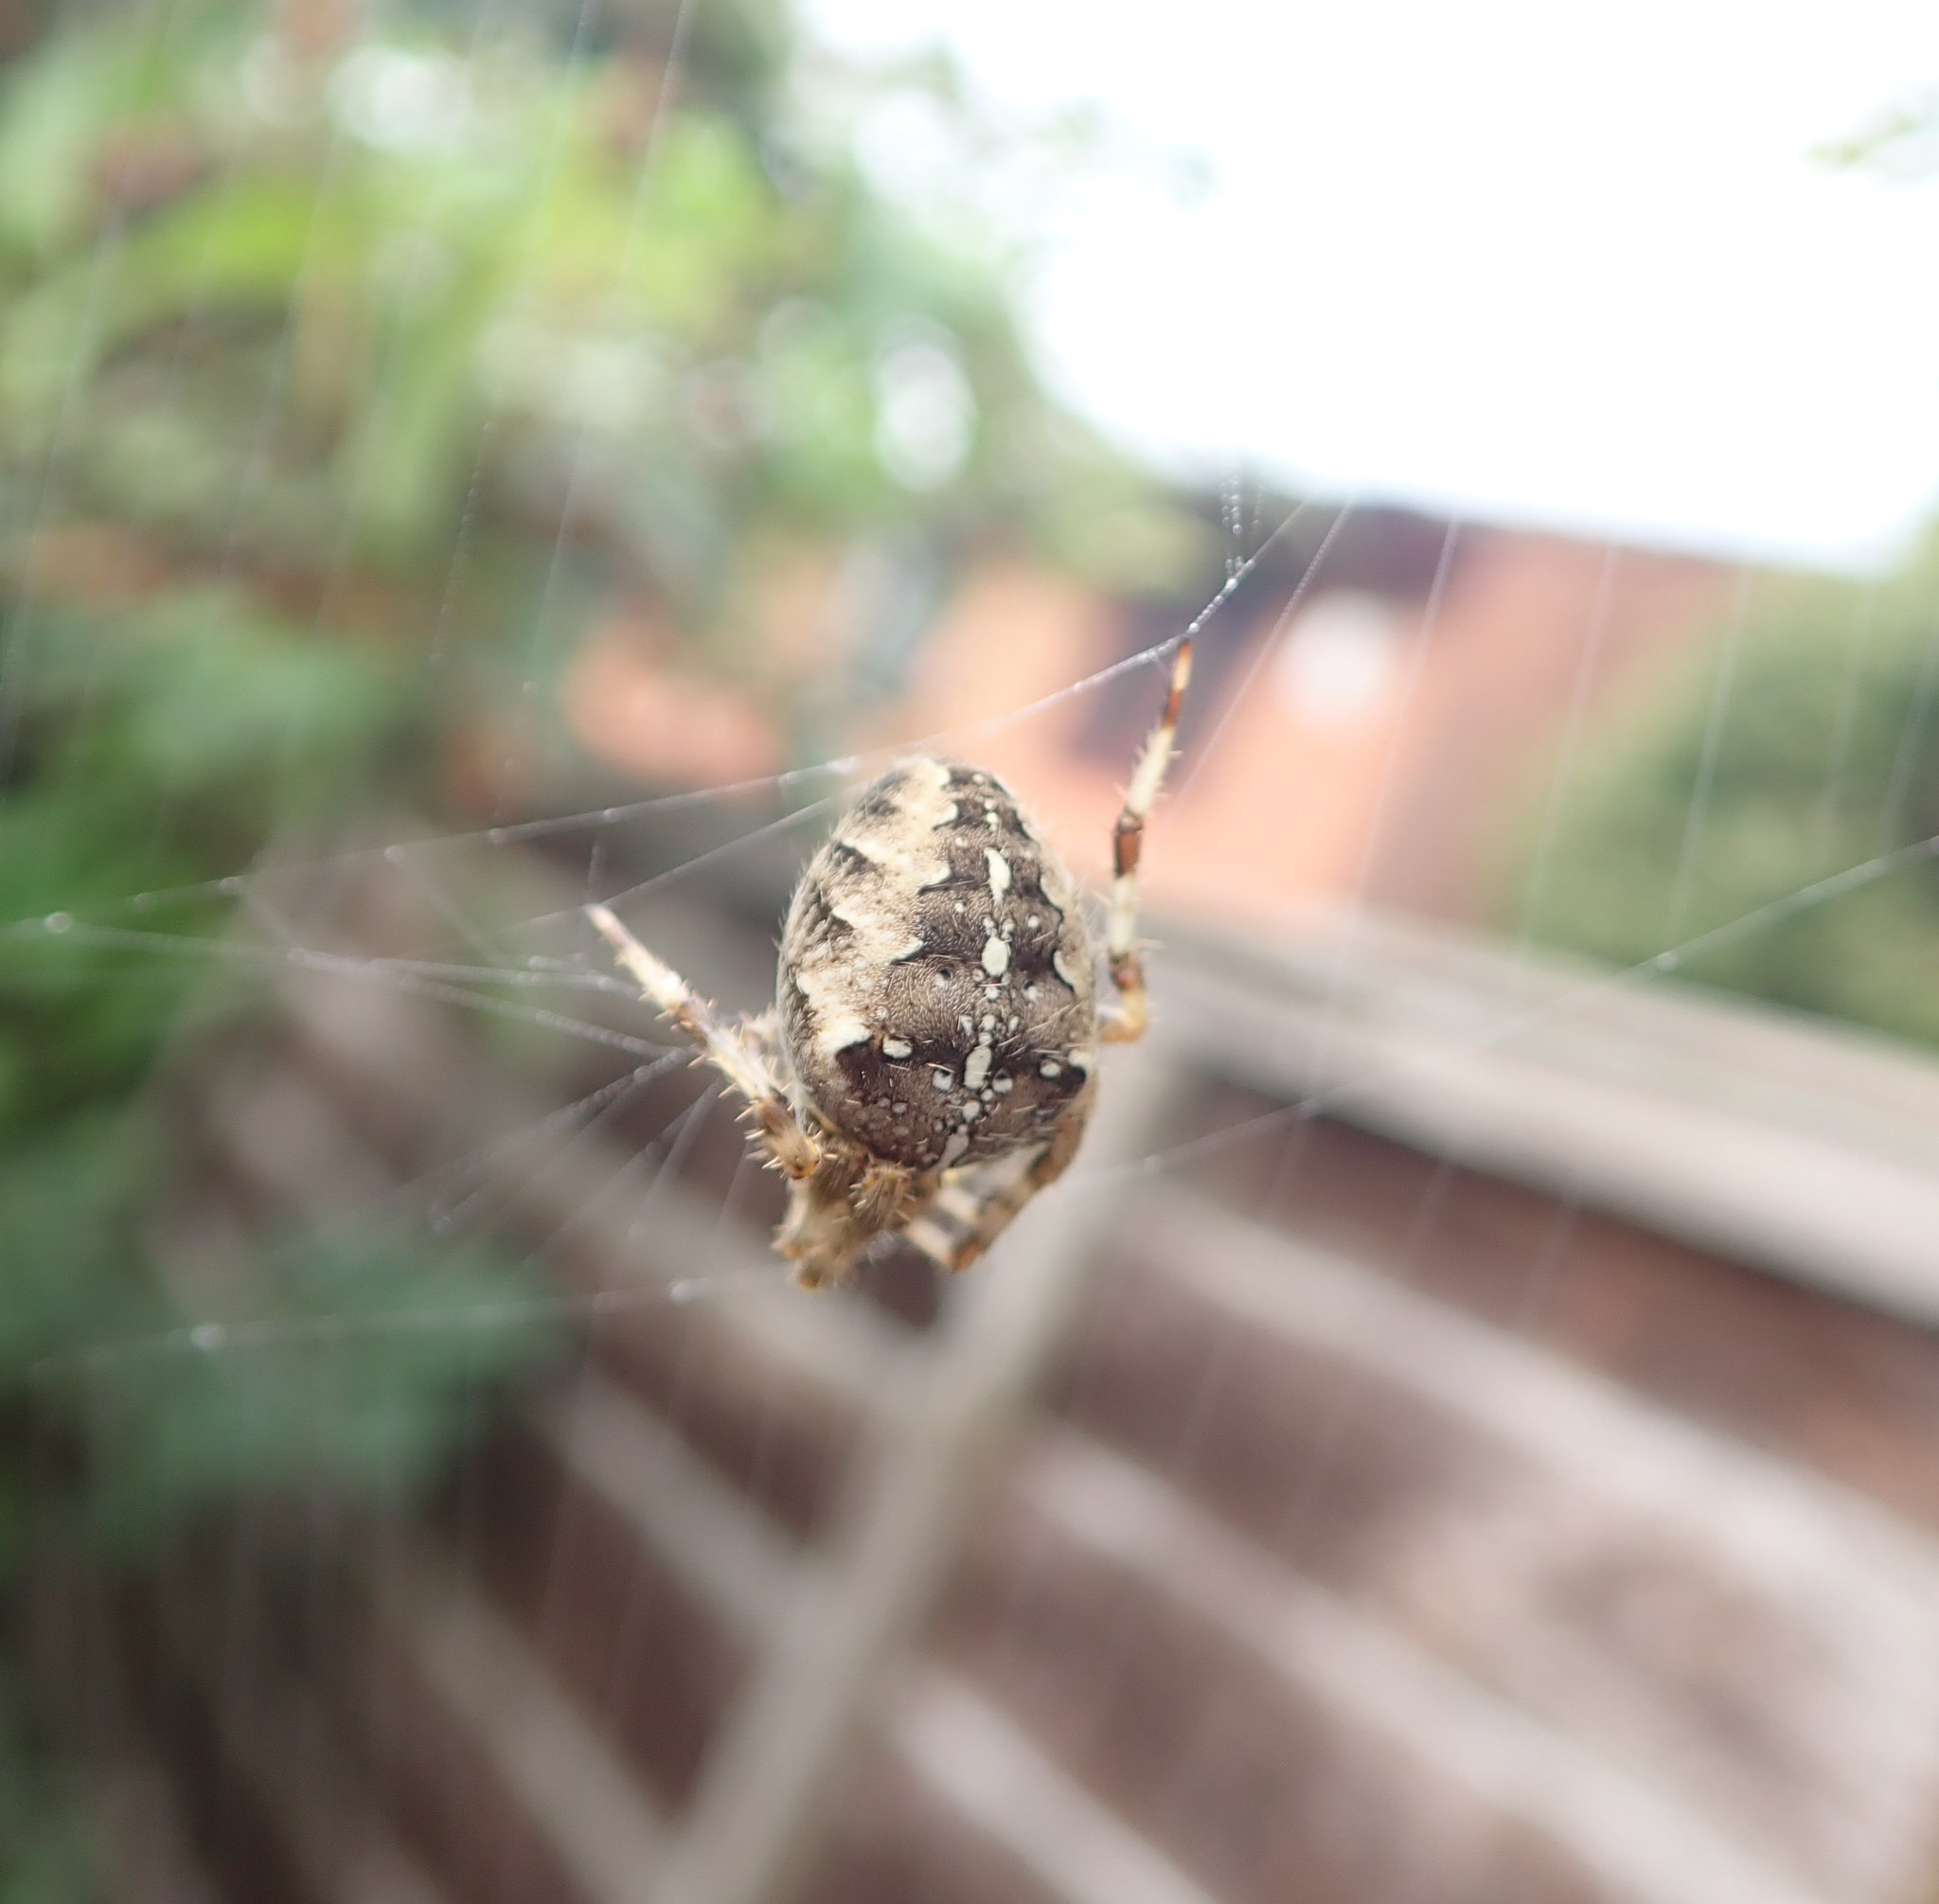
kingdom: Animalia
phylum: Arthropoda
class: Arachnida
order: Araneae
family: Araneidae
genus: Araneus
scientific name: Araneus diadematus
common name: Cross orbweaver
